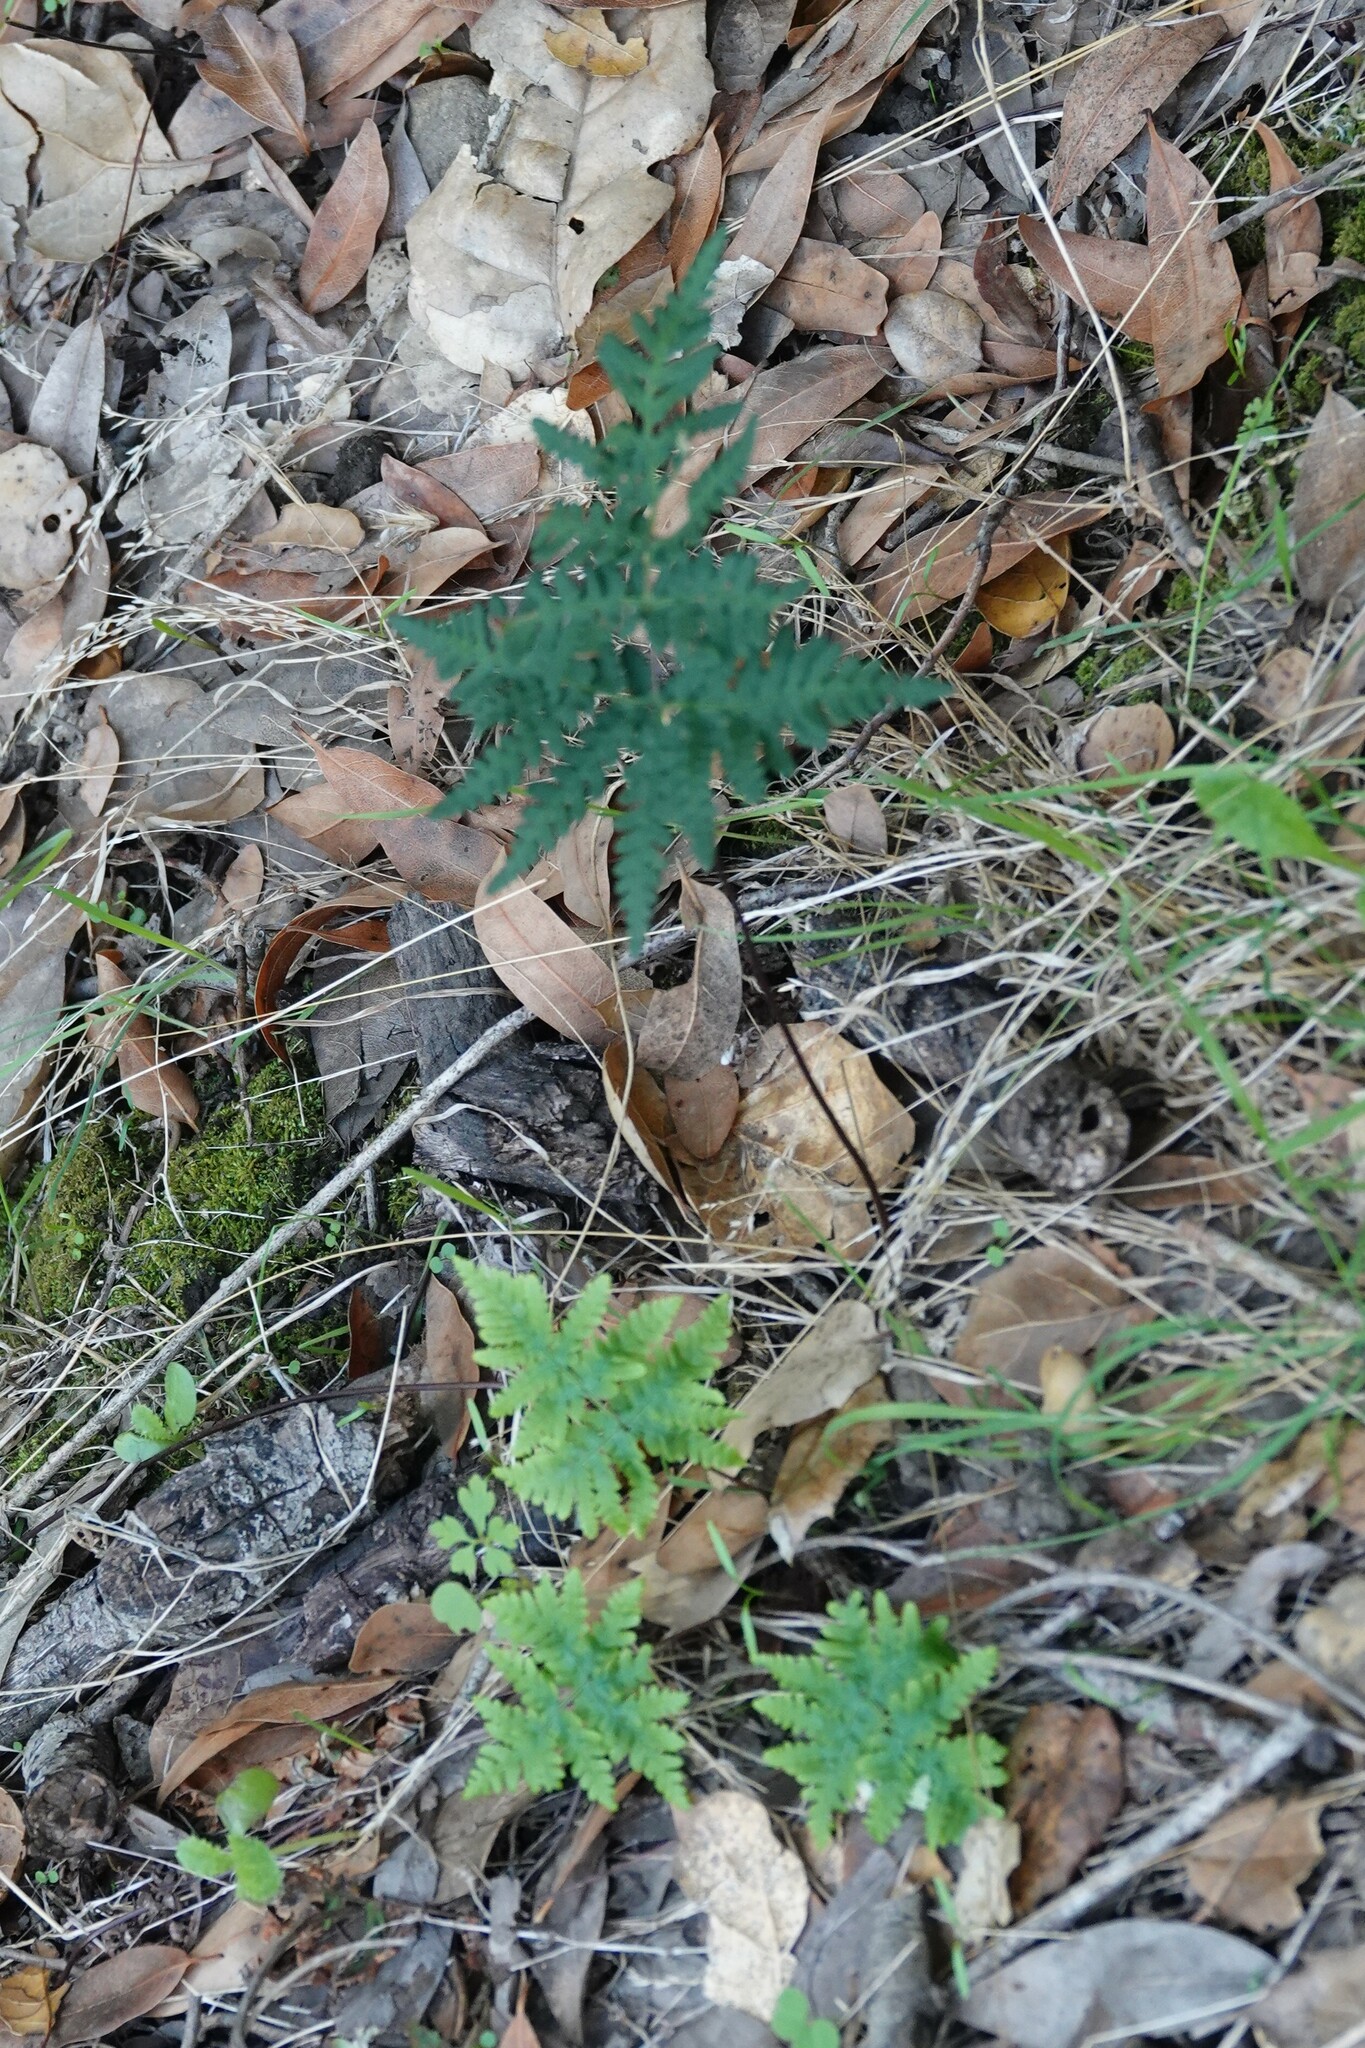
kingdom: Plantae
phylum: Tracheophyta
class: Polypodiopsida
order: Polypodiales
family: Pteridaceae
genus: Pentagramma
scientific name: Pentagramma triangularis
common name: Gold fern
